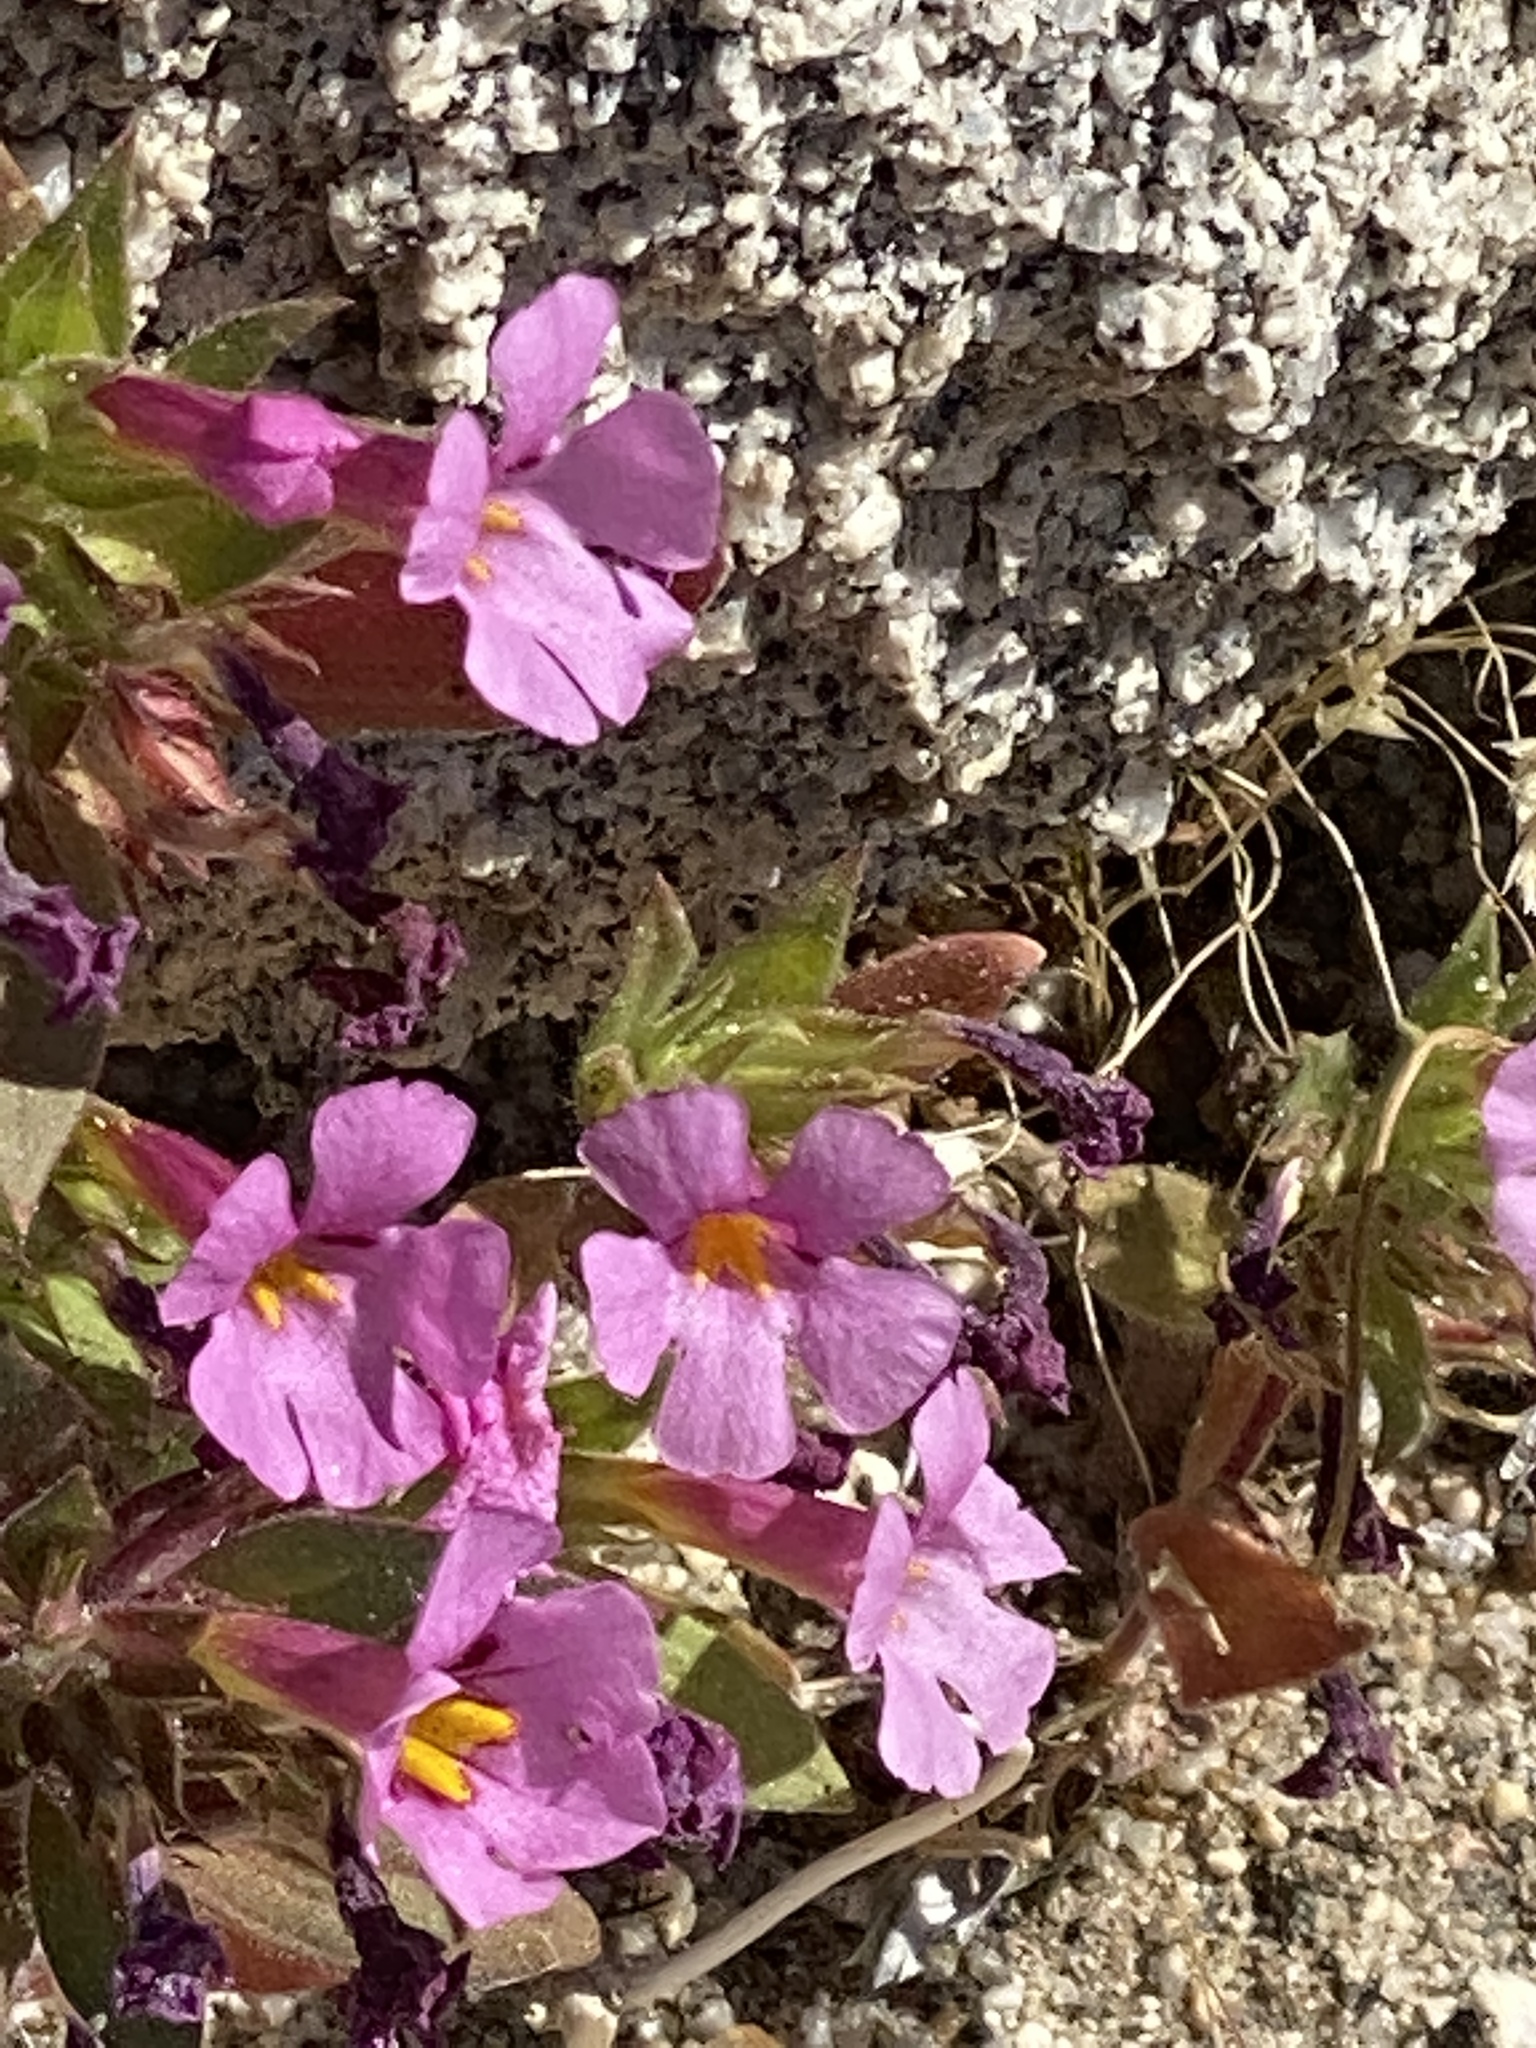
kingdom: Plantae
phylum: Tracheophyta
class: Magnoliopsida
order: Lamiales
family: Phrymaceae
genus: Diplacus
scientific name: Diplacus bigelovii
